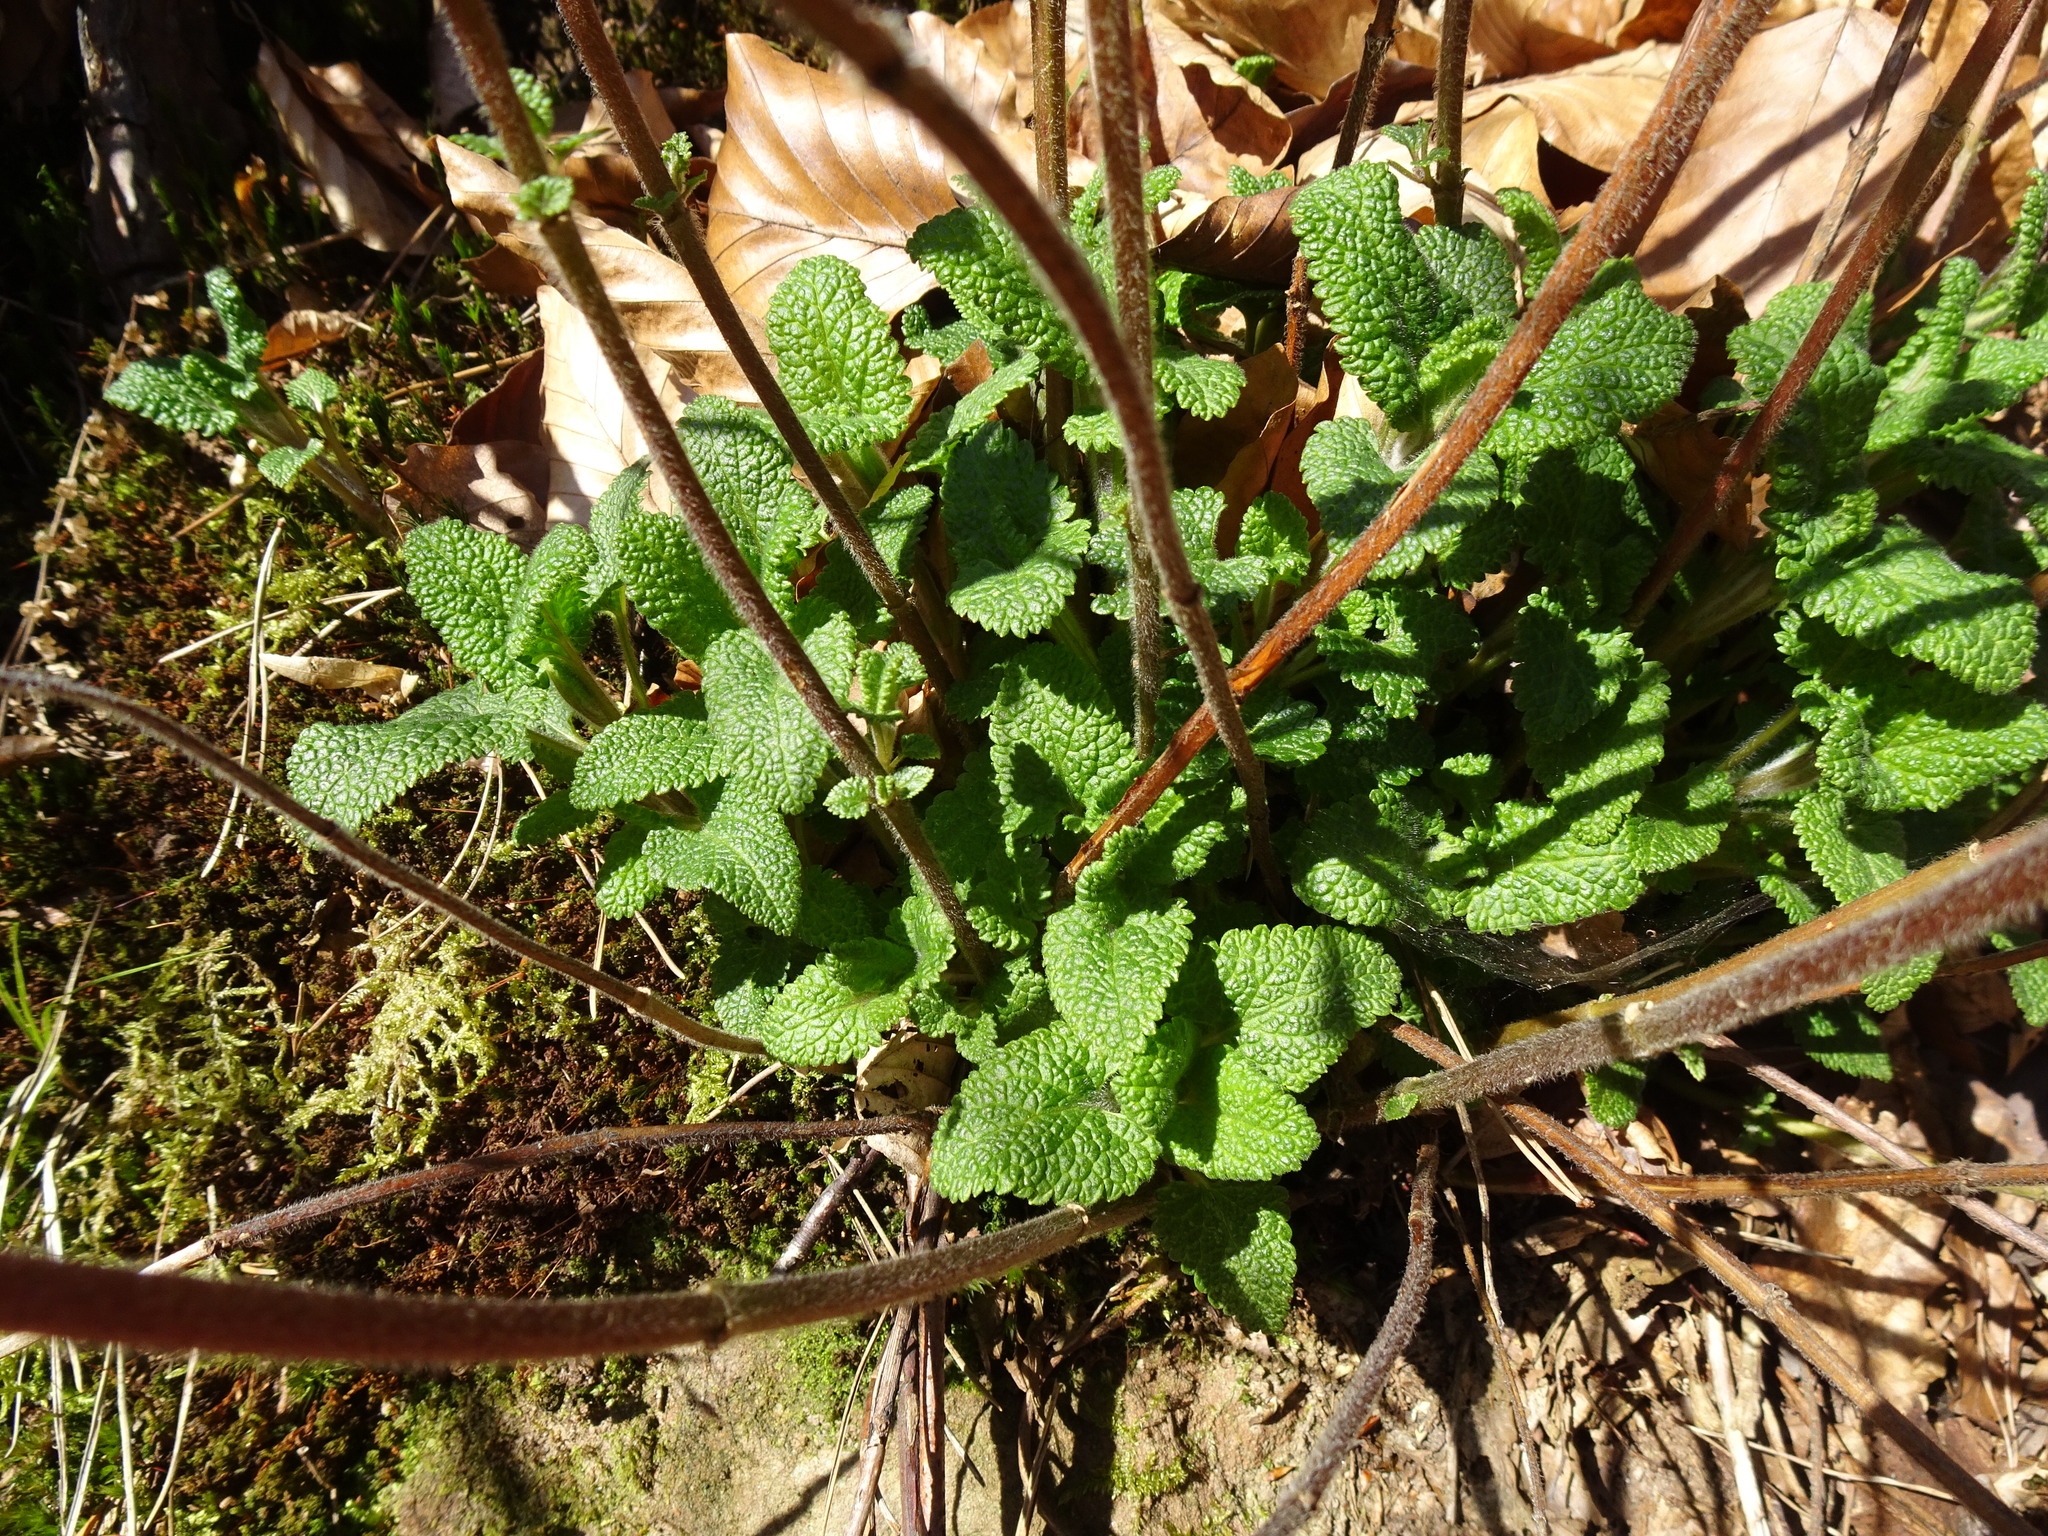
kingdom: Plantae
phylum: Tracheophyta
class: Magnoliopsida
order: Lamiales
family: Lamiaceae
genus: Teucrium
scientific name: Teucrium scorodonia
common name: Woodland germander
